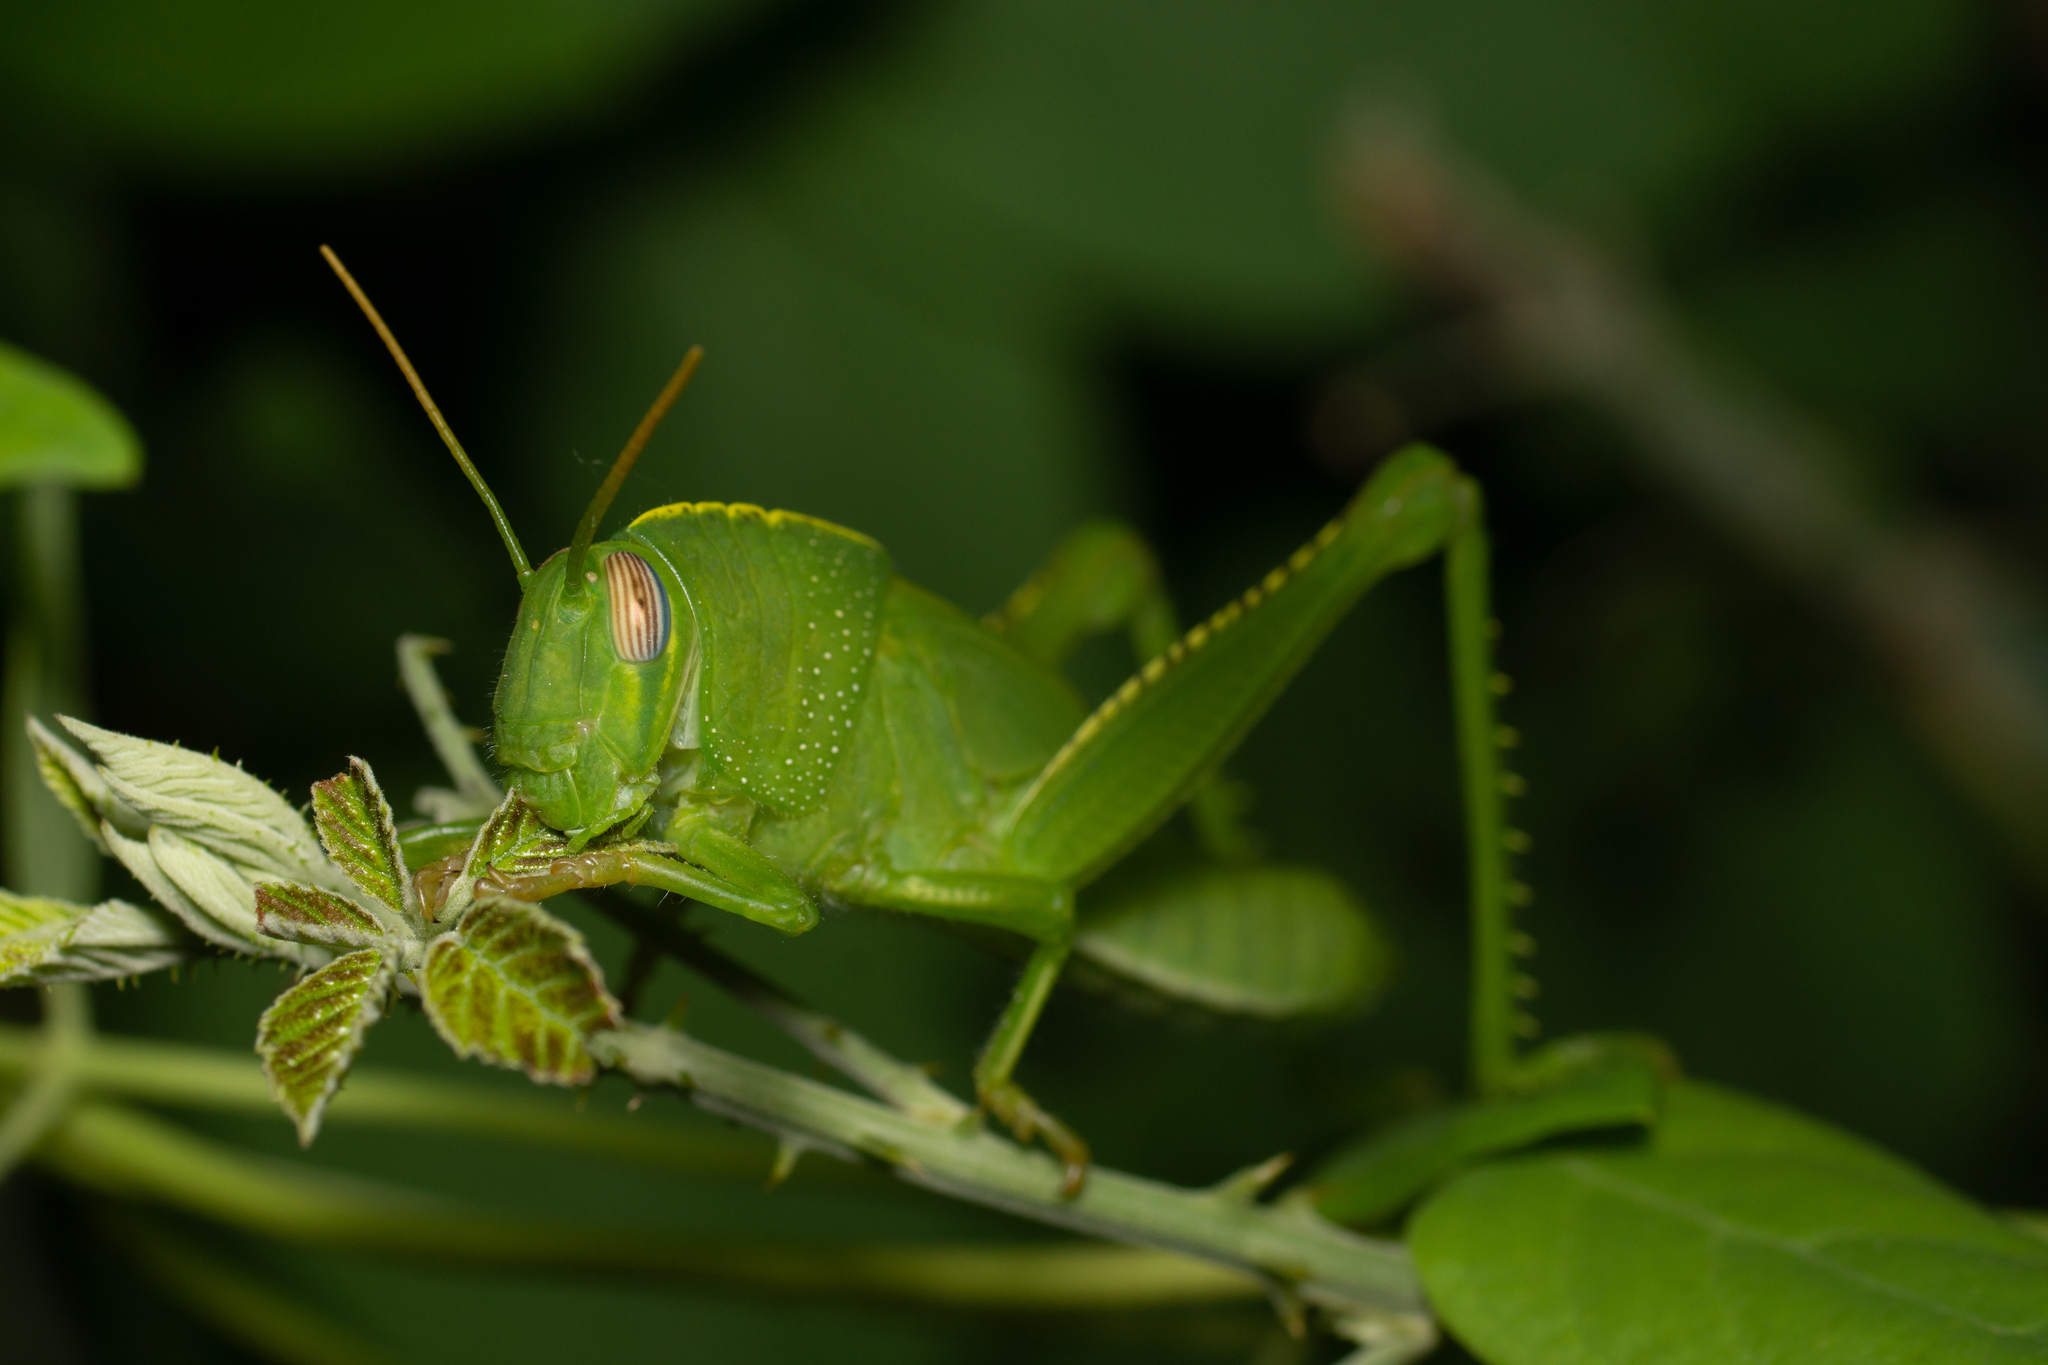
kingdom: Animalia
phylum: Arthropoda
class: Insecta
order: Orthoptera
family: Acrididae
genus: Anacridium
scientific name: Anacridium aegyptium
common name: Egyptian grasshopper
